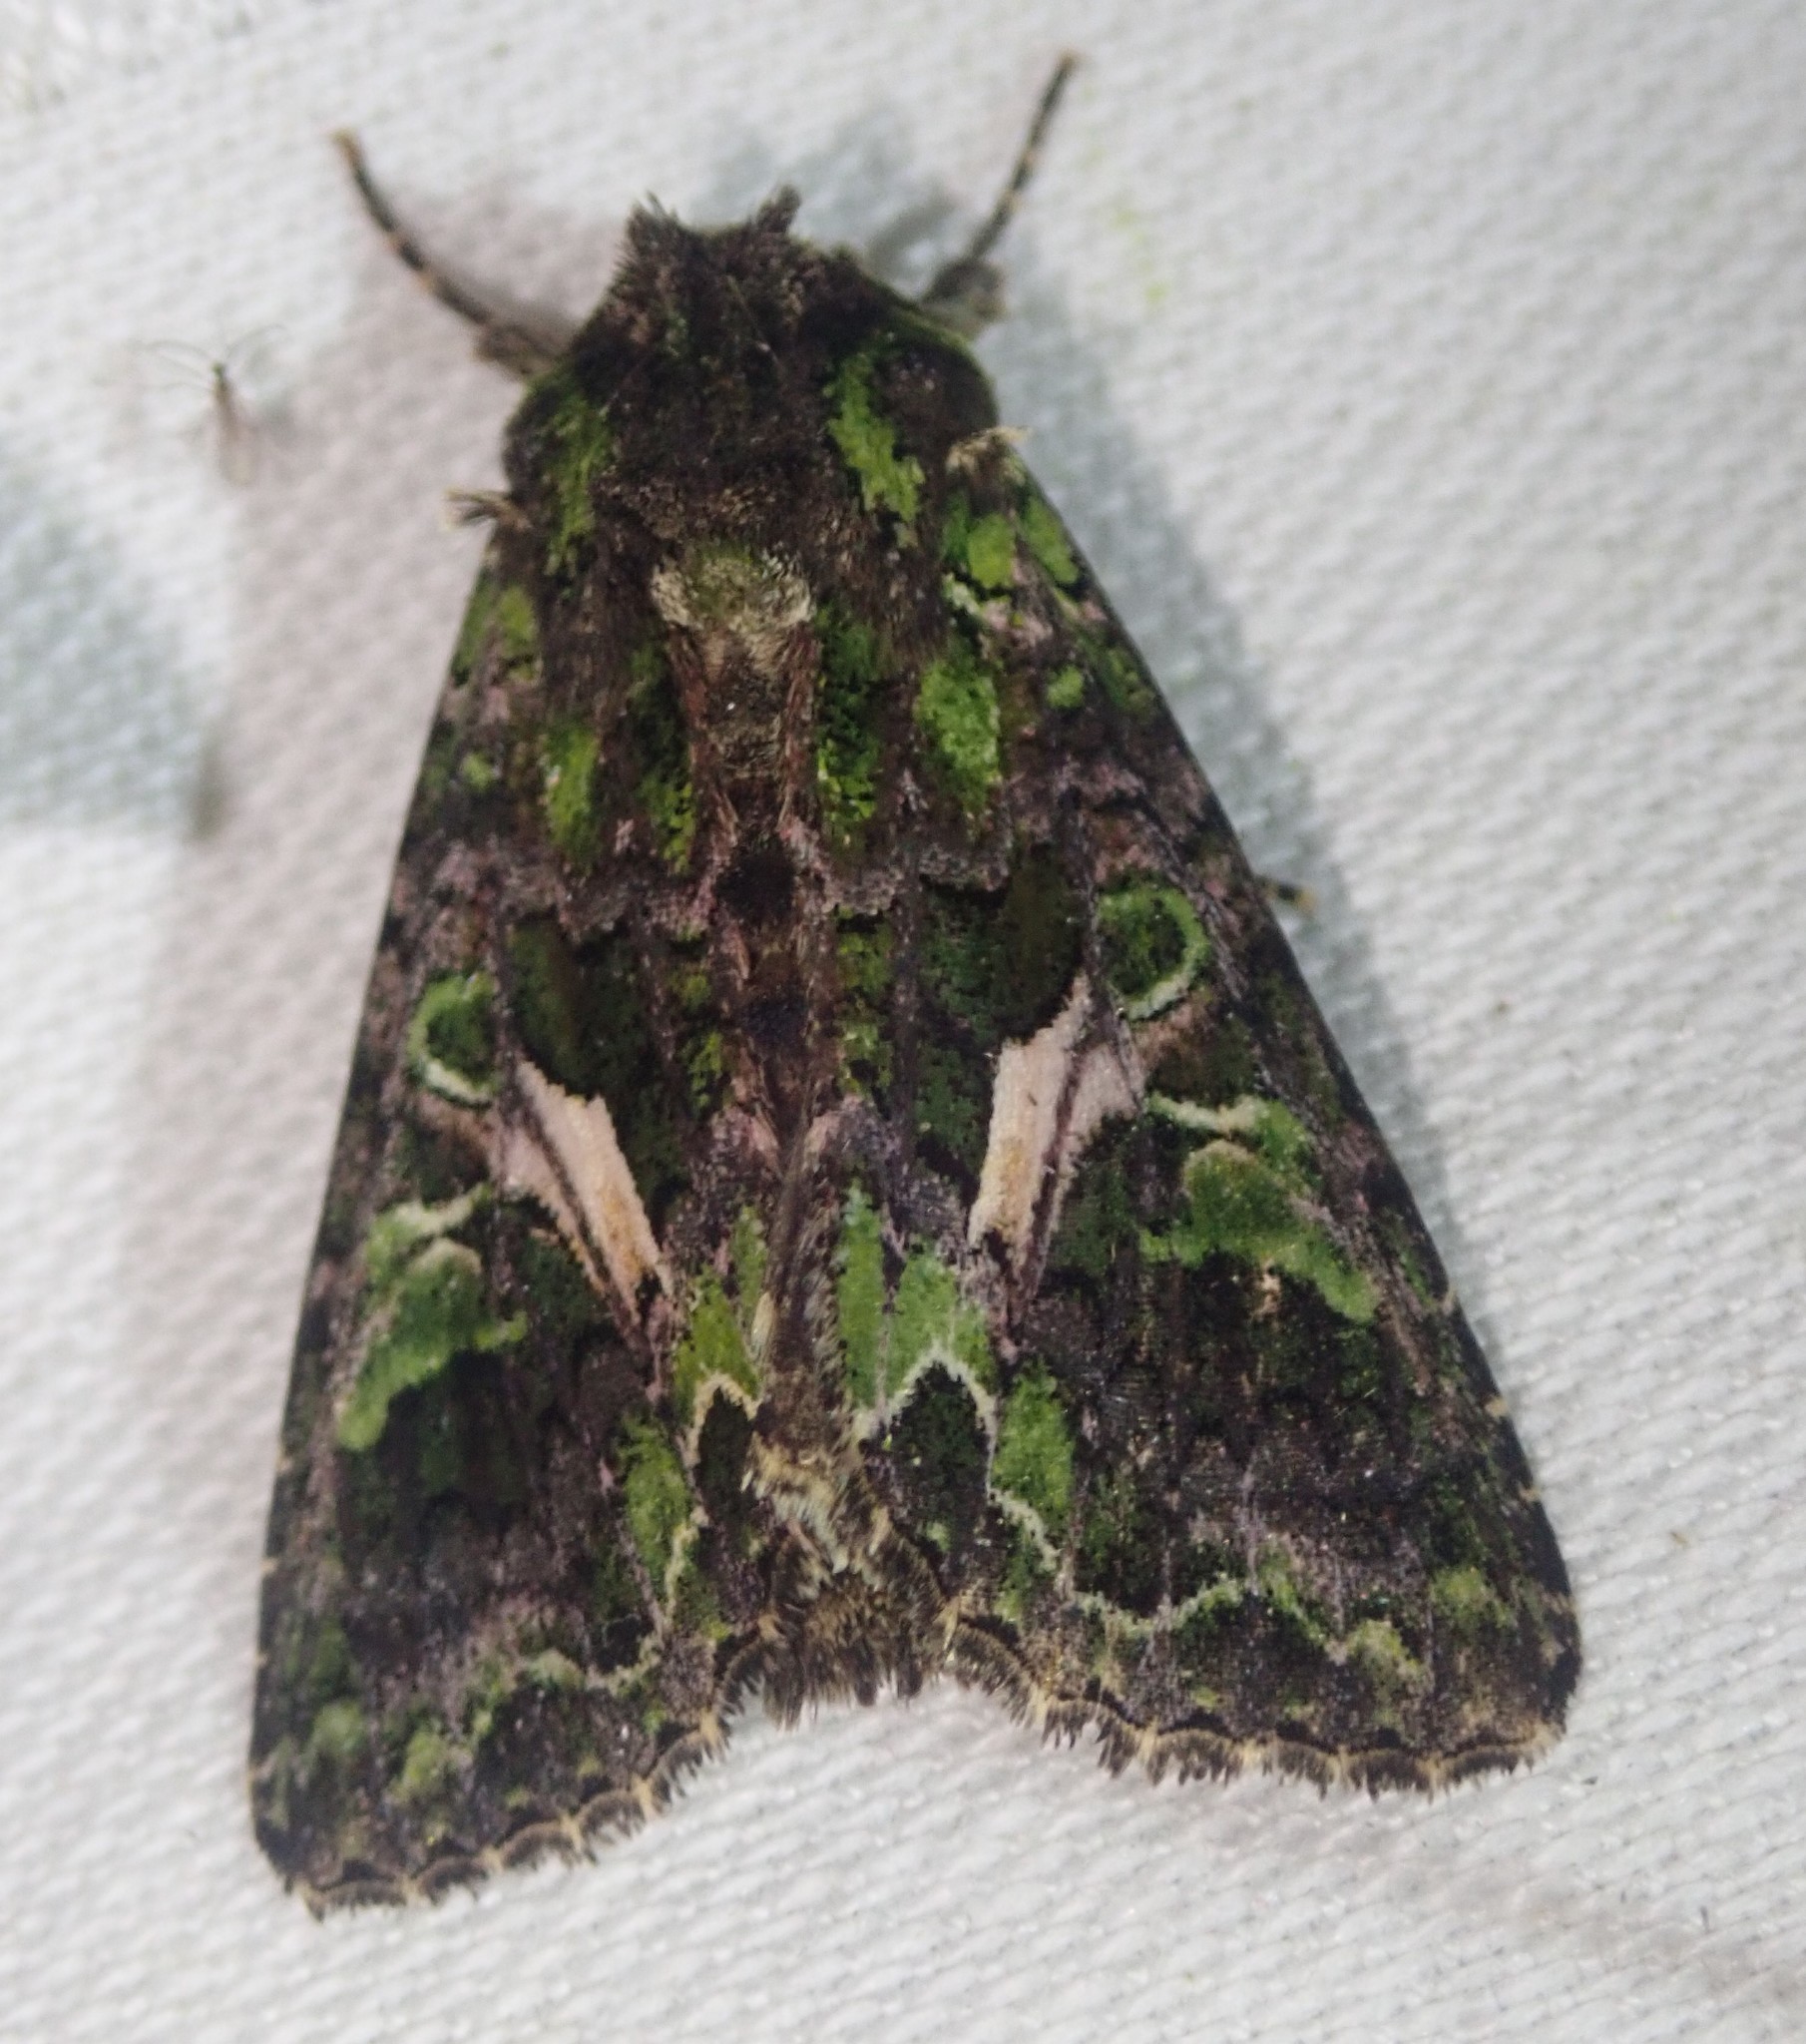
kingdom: Animalia
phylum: Arthropoda
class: Insecta
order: Lepidoptera
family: Noctuidae
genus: Trachea
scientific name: Trachea atriplicis
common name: Orache moth
